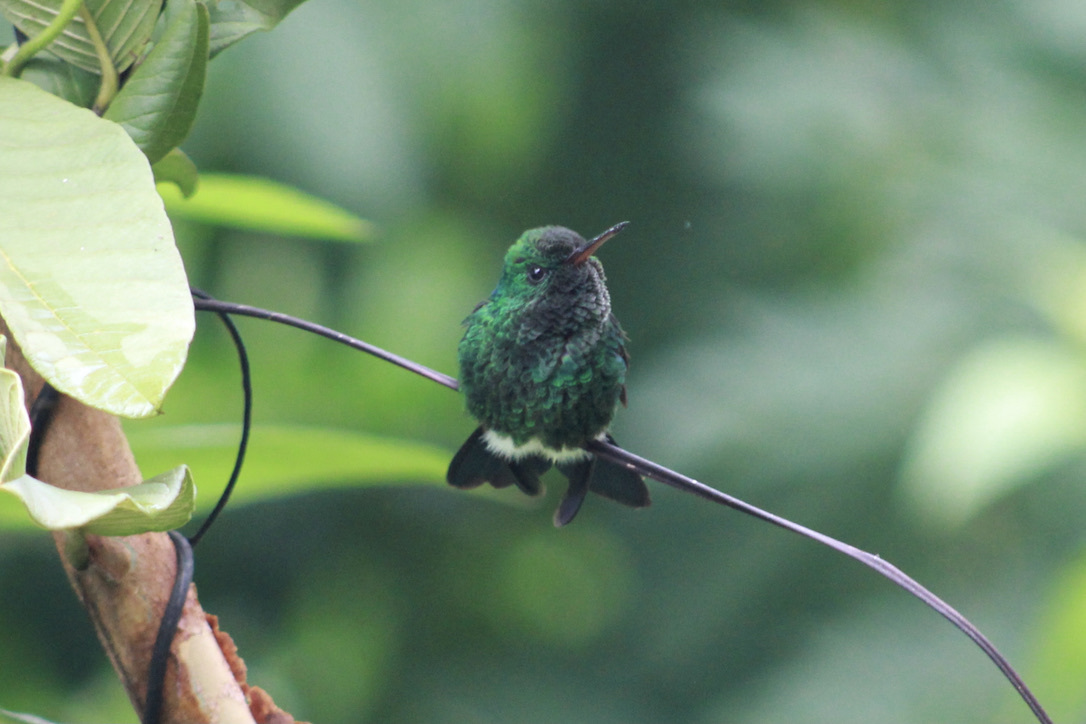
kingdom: Animalia
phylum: Chordata
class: Aves
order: Apodiformes
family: Trochilidae
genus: Saucerottia
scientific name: Saucerottia tobaci
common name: Copper-rumped hummingbird
